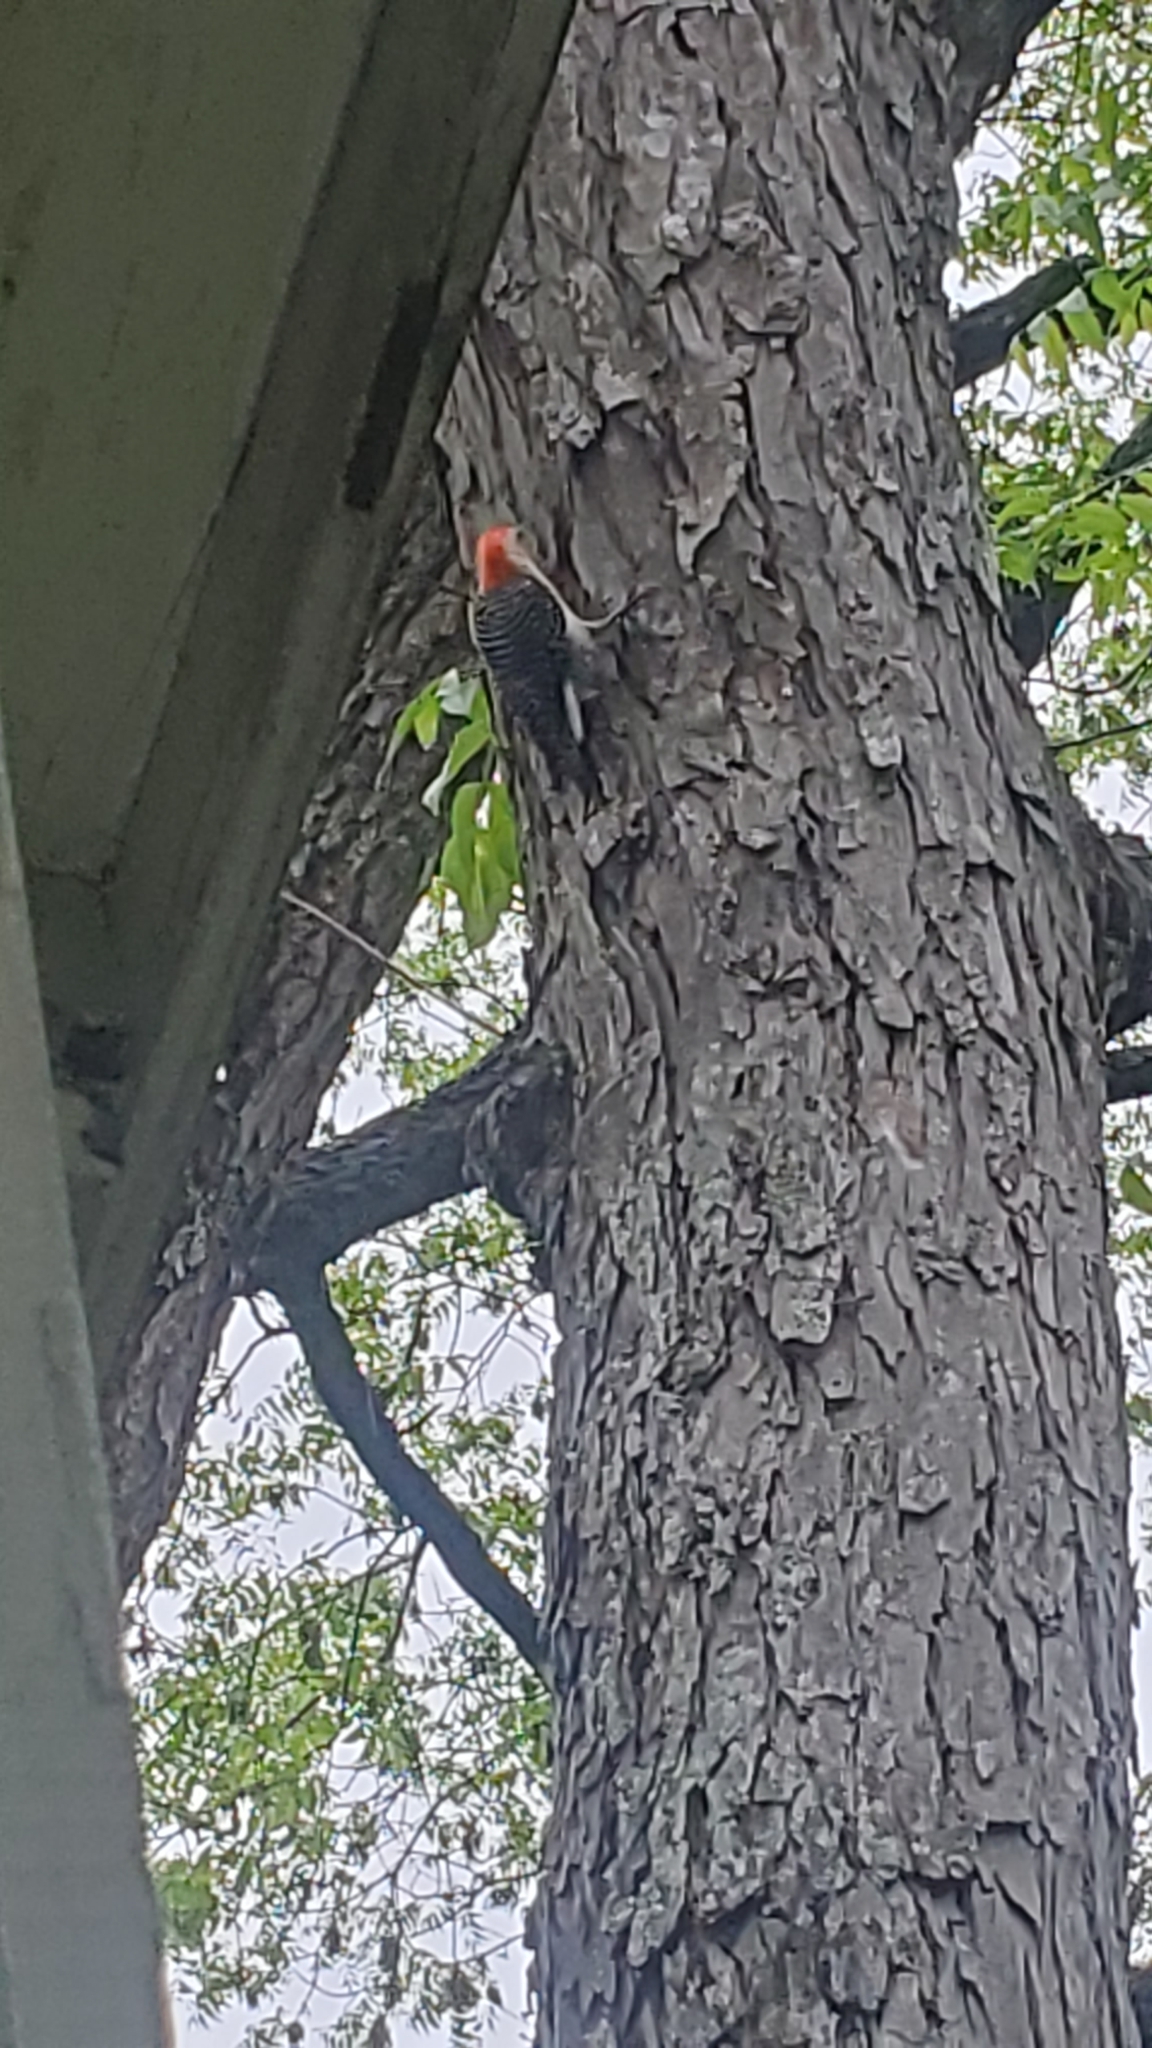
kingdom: Animalia
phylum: Chordata
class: Aves
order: Piciformes
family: Picidae
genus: Melanerpes
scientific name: Melanerpes carolinus
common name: Red-bellied woodpecker
